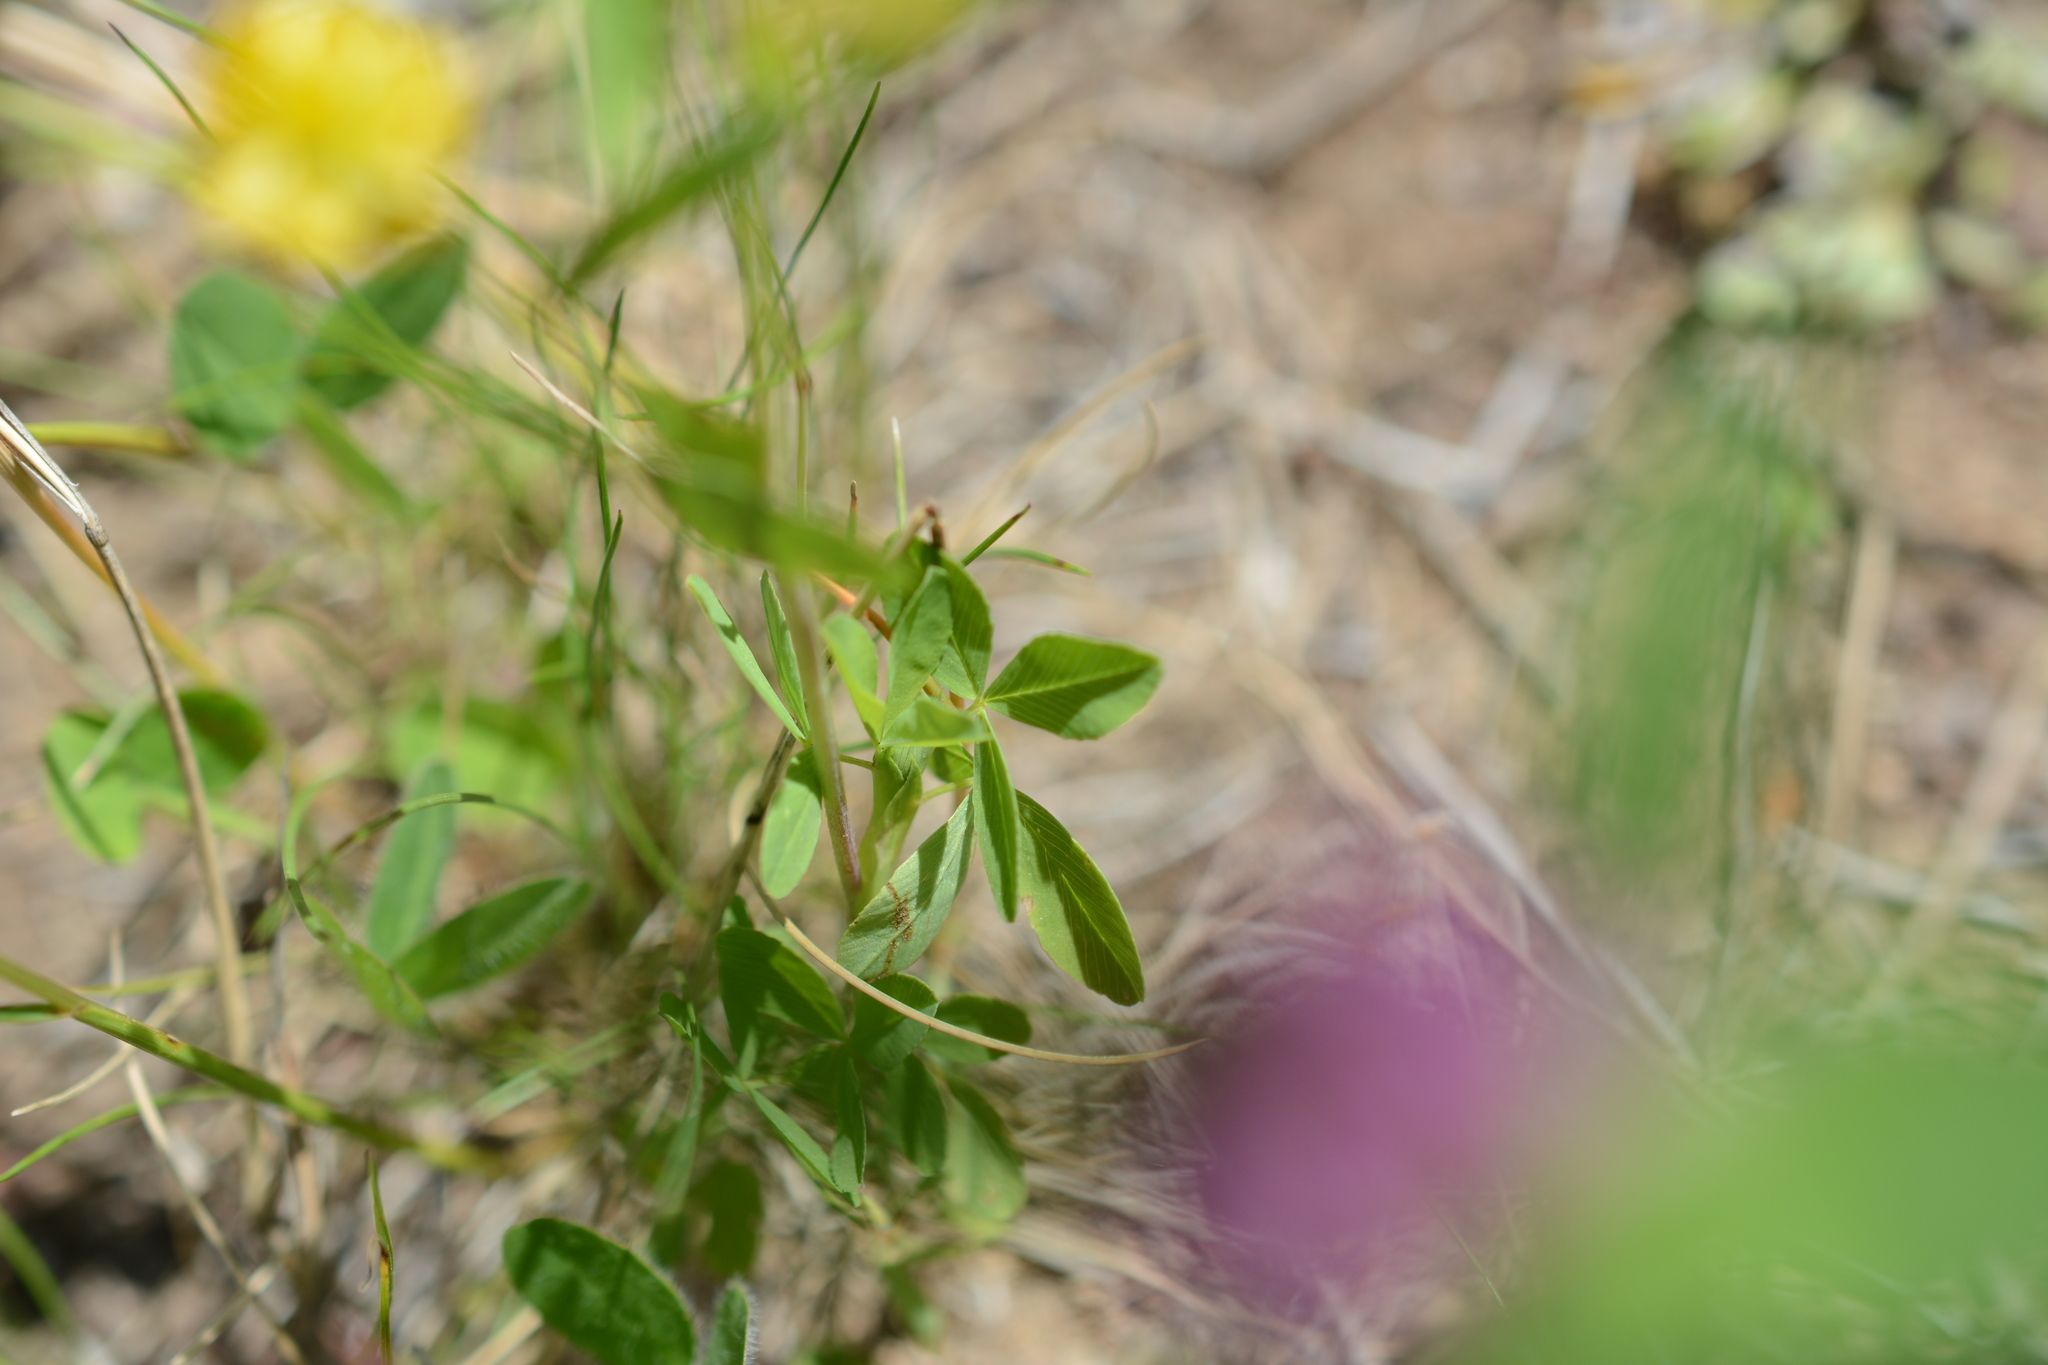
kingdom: Plantae
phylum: Tracheophyta
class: Magnoliopsida
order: Fabales
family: Fabaceae
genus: Trifolium
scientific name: Trifolium aureum
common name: Golden clover
